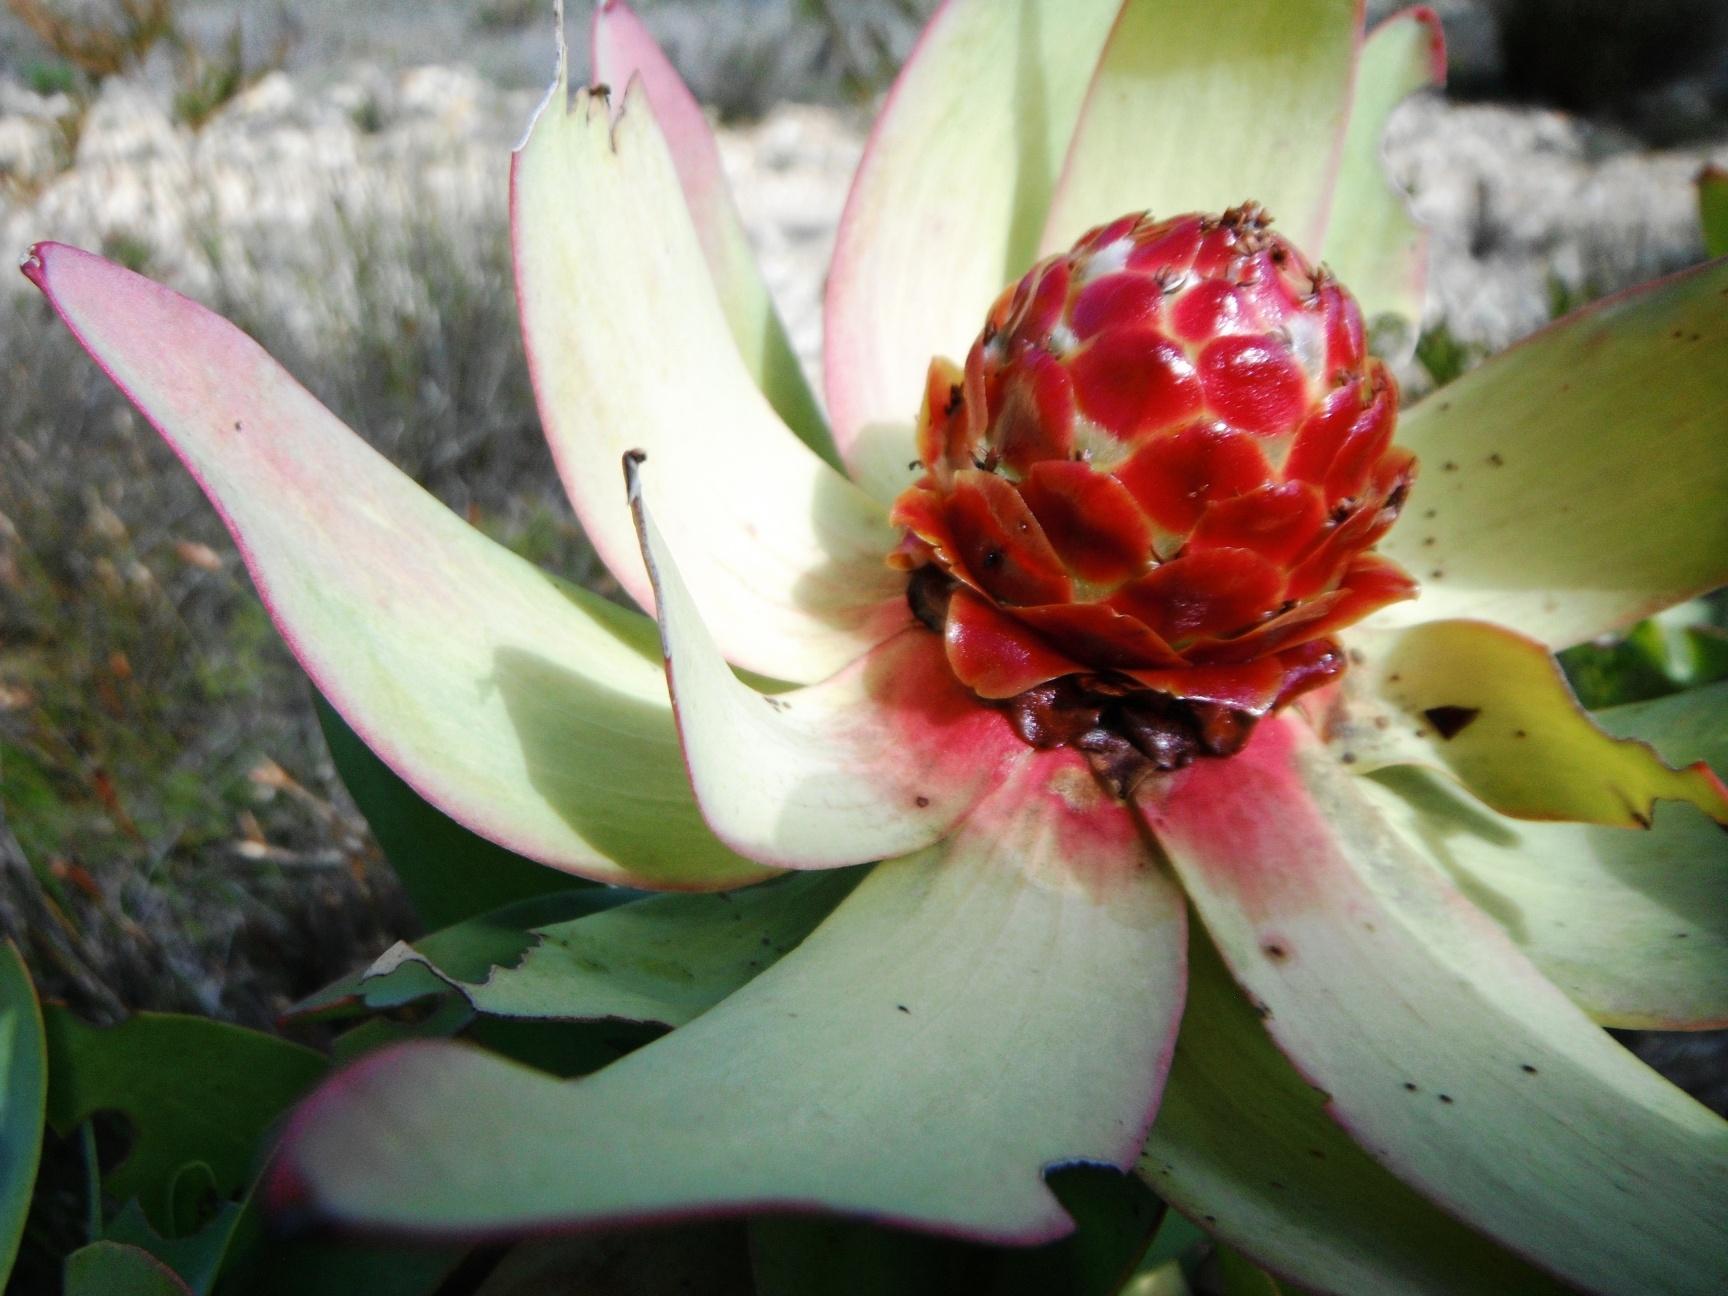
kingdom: Plantae
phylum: Tracheophyta
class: Magnoliopsida
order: Proteales
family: Proteaceae
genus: Leucadendron
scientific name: Leucadendron tinctum
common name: Spicy conebush
